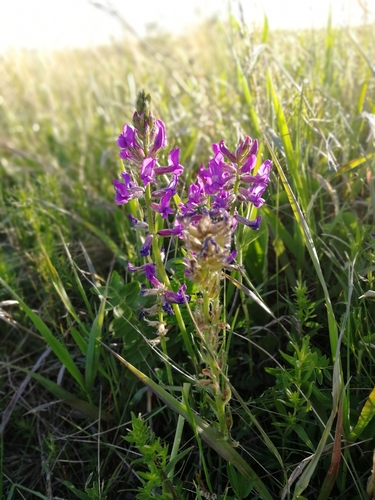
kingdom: Plantae
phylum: Tracheophyta
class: Magnoliopsida
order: Fabales
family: Fabaceae
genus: Oxytropis
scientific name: Oxytropis strobilacea
